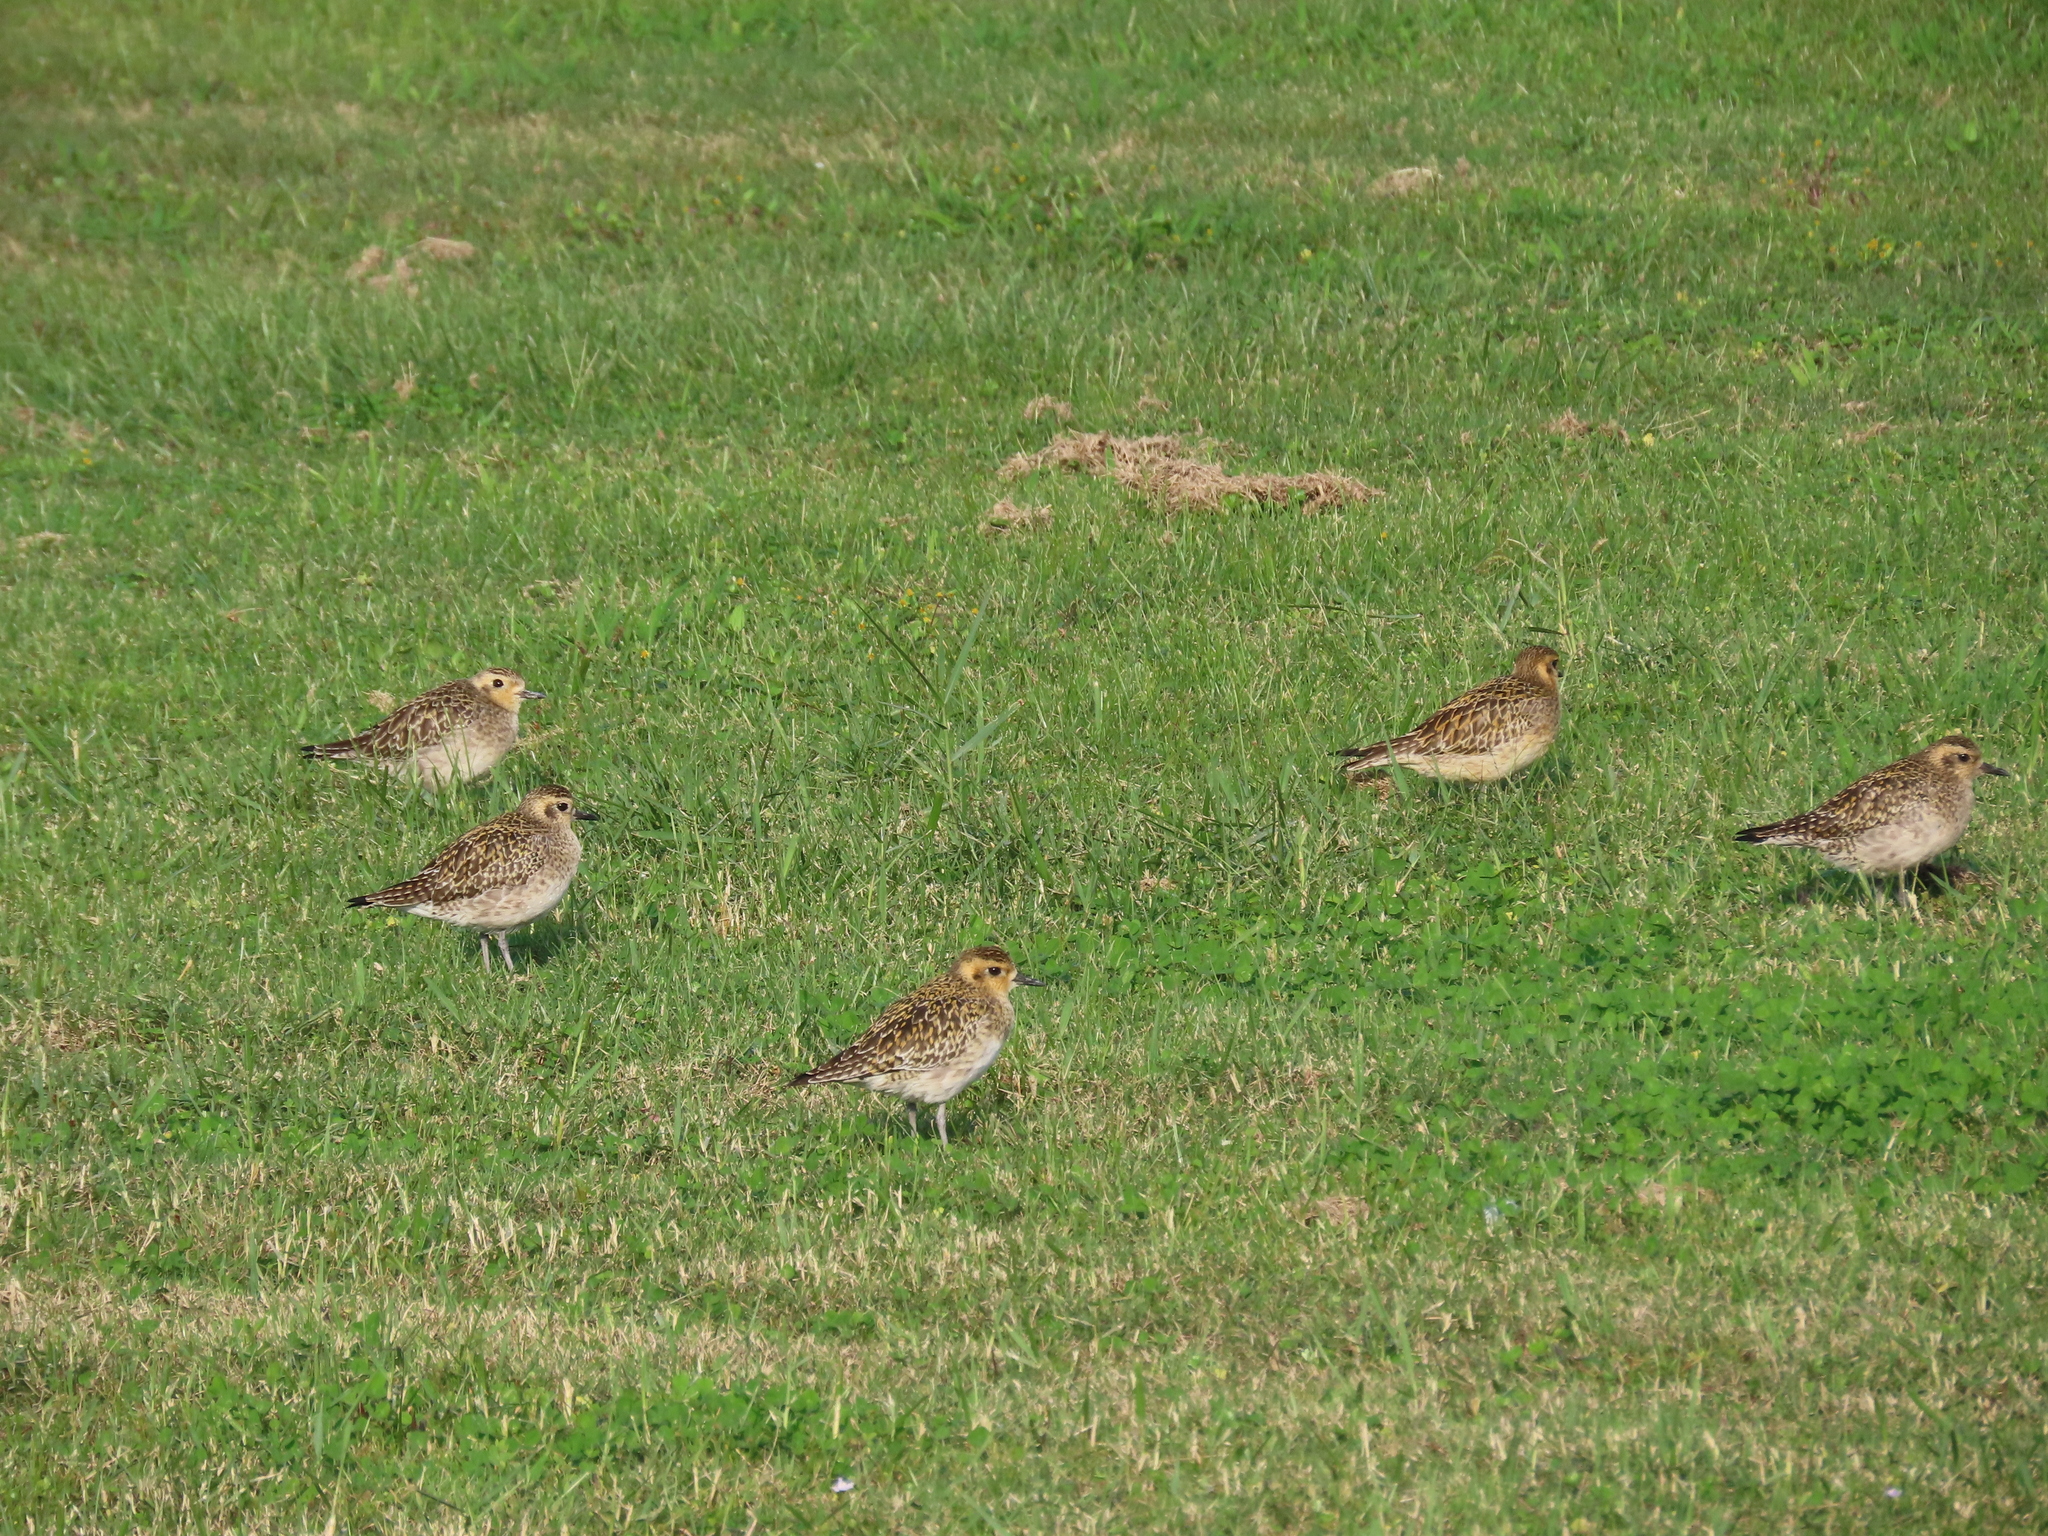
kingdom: Animalia
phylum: Chordata
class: Aves
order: Charadriiformes
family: Charadriidae
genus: Pluvialis
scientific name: Pluvialis fulva
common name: Pacific golden plover
